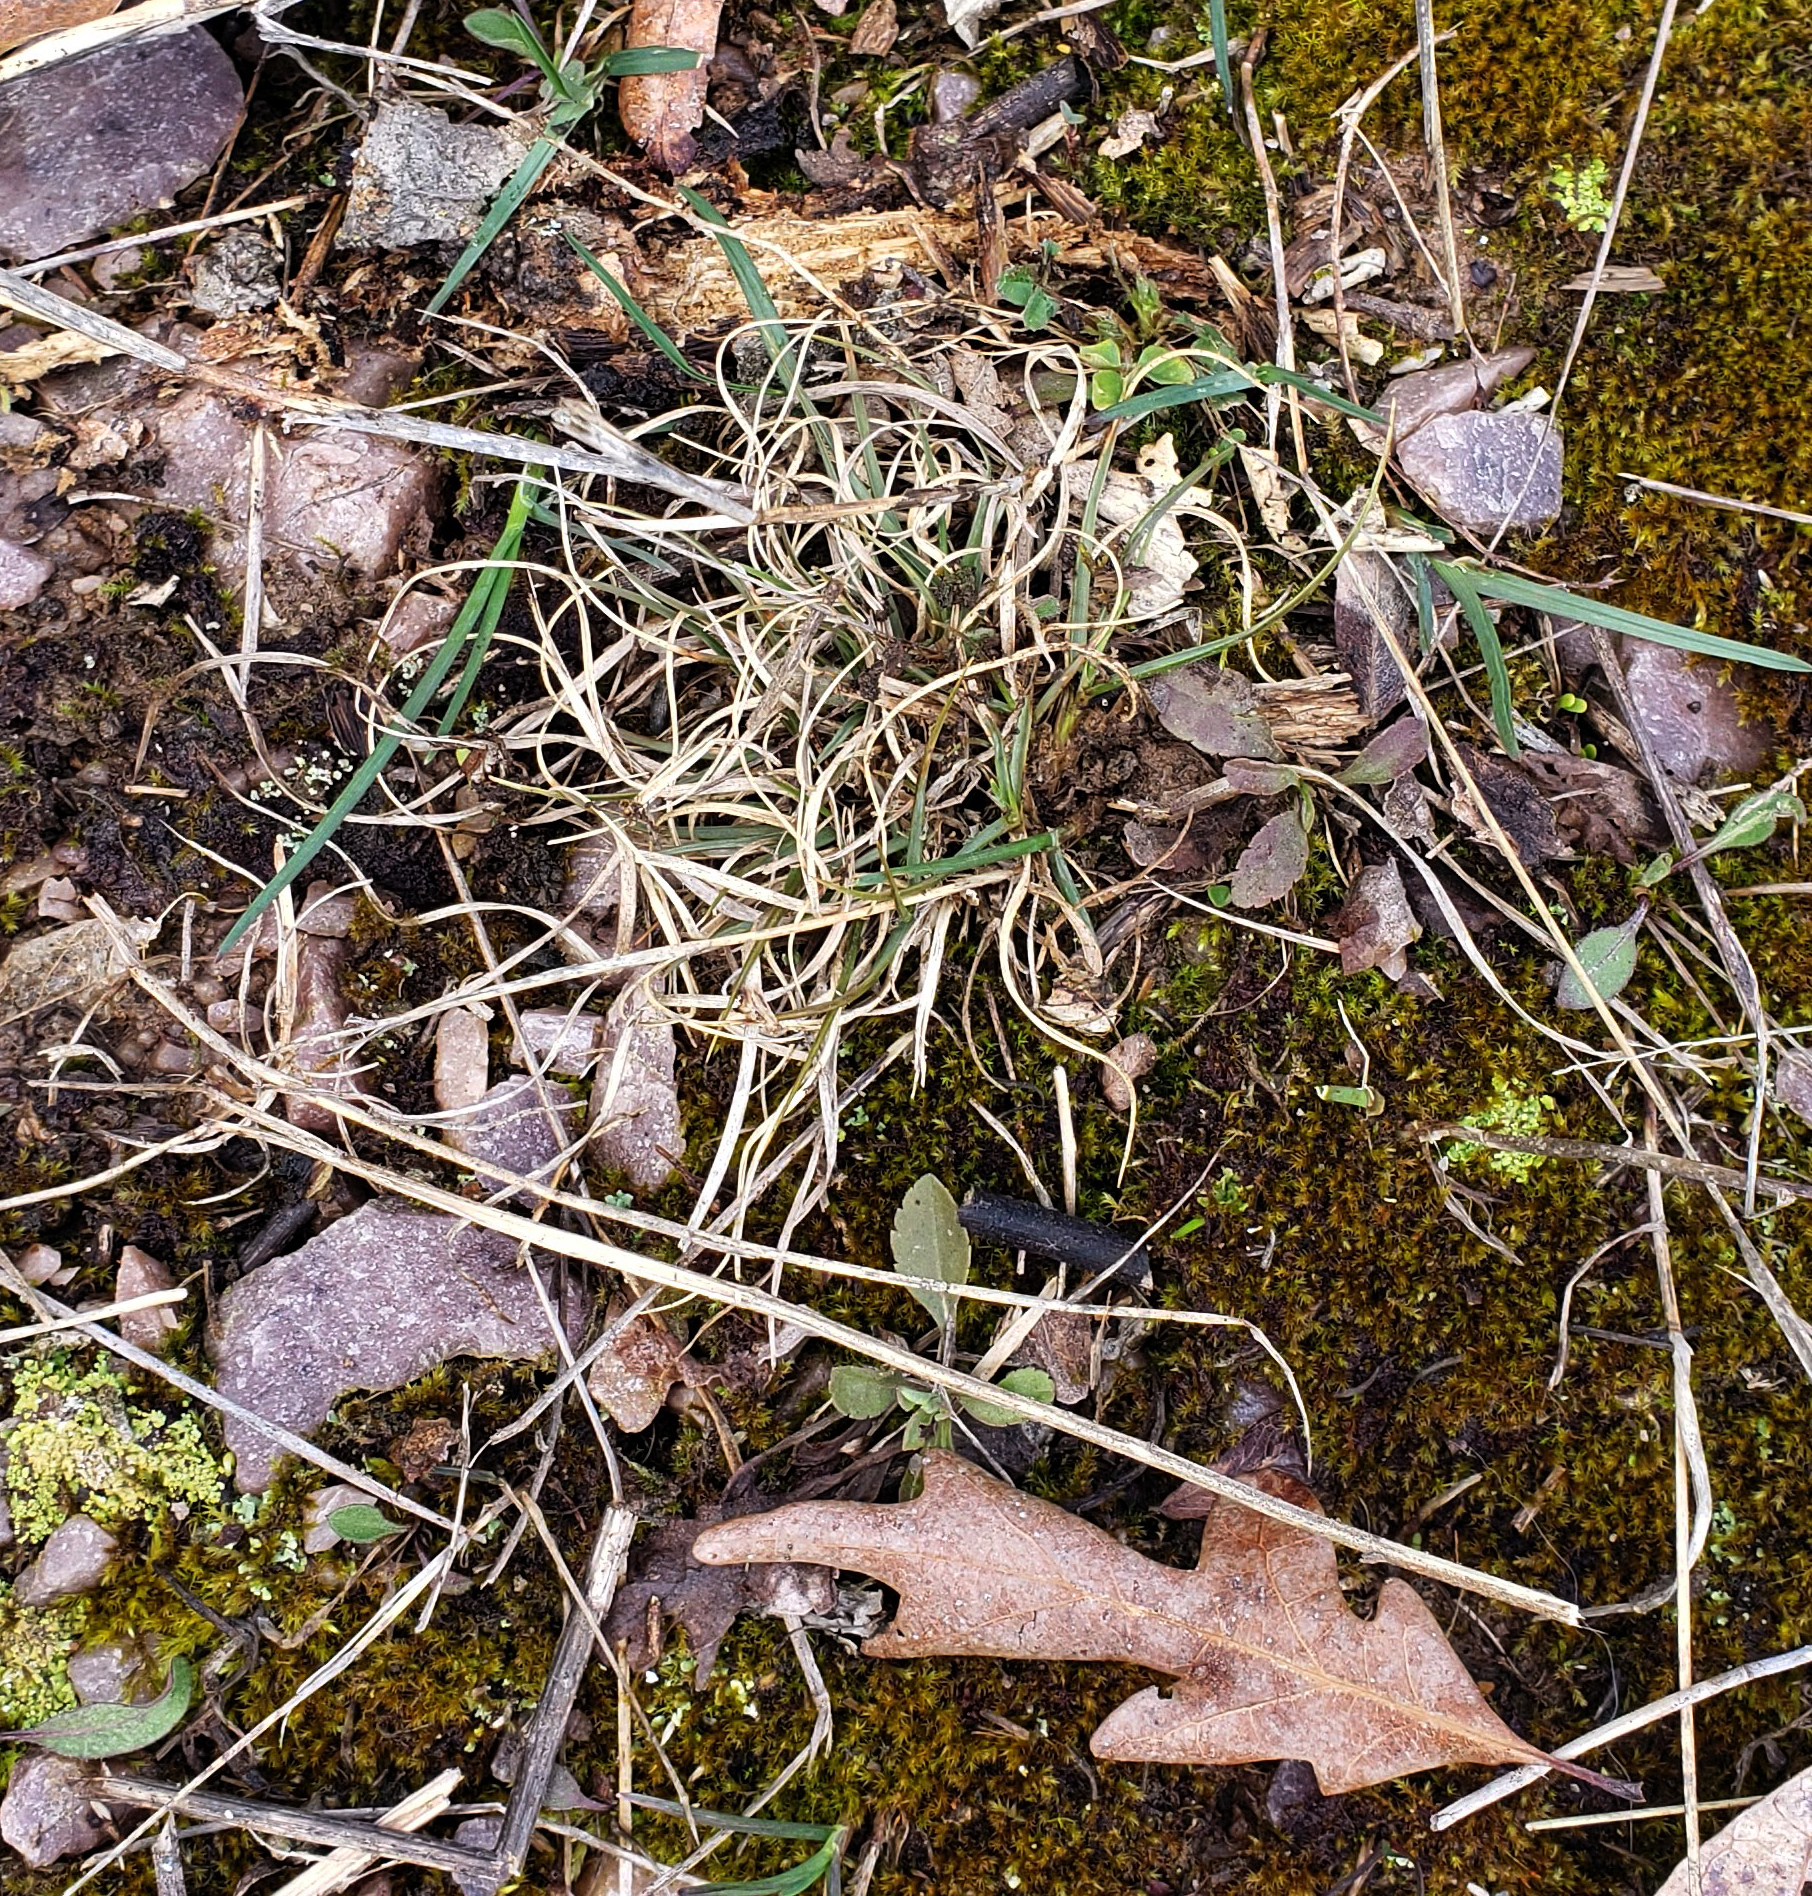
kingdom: Plantae
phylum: Tracheophyta
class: Liliopsida
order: Poales
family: Poaceae
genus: Danthonia
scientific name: Danthonia spicata
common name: Common wild oatgrass
